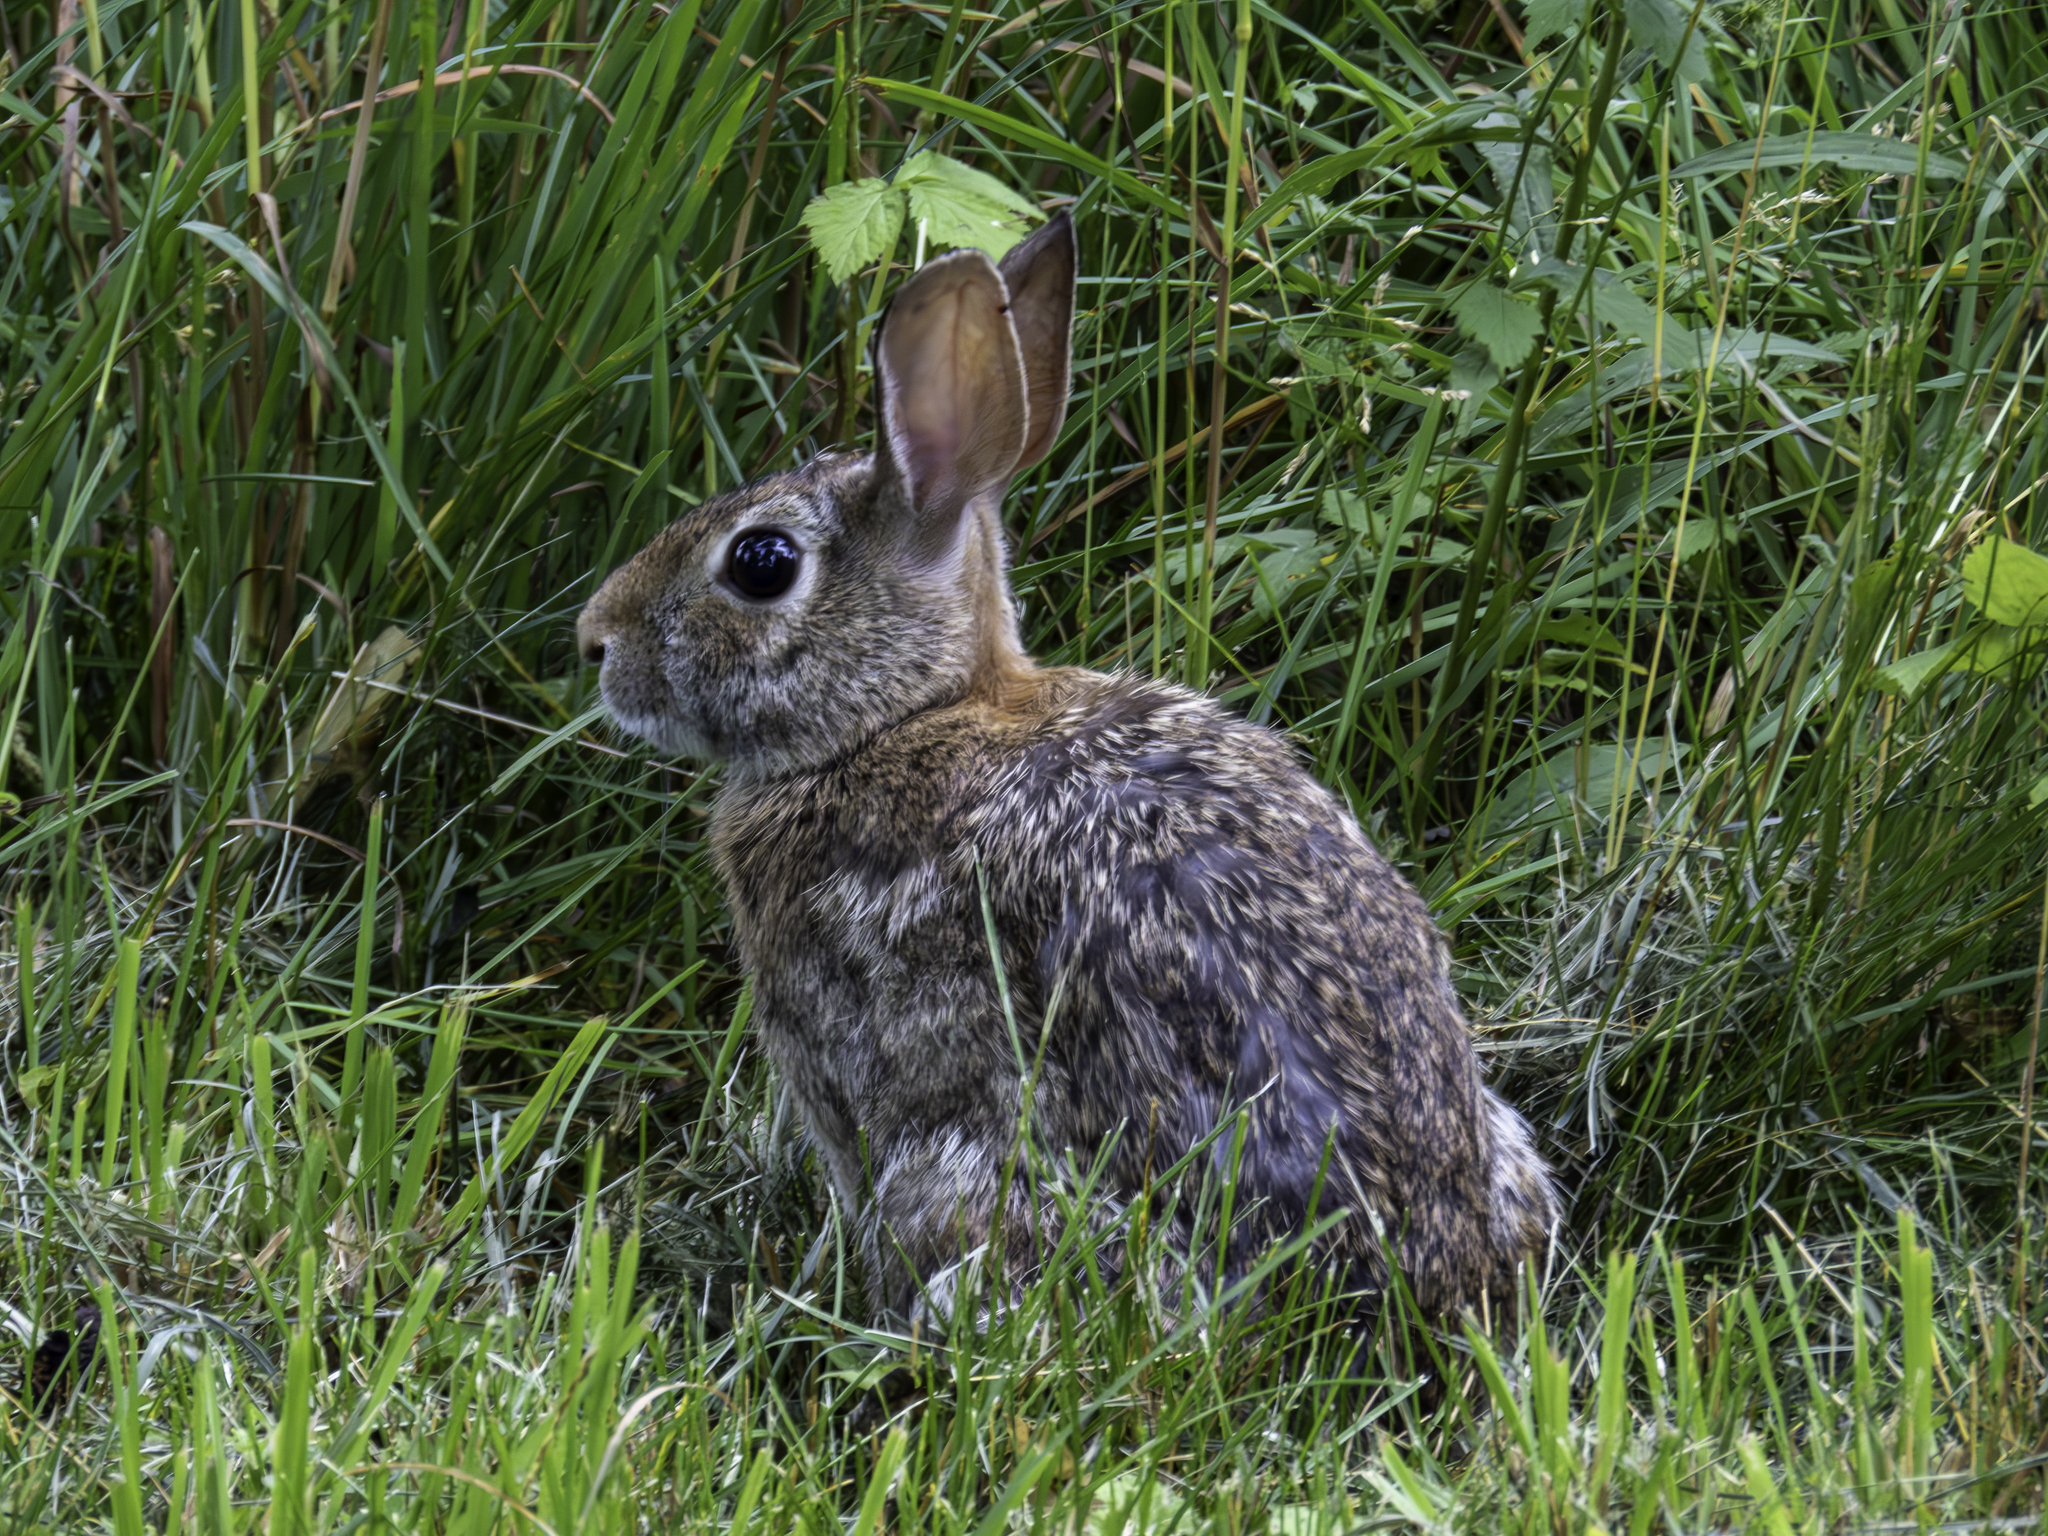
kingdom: Animalia
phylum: Chordata
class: Mammalia
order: Lagomorpha
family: Leporidae
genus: Sylvilagus
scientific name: Sylvilagus floridanus
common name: Eastern cottontail
